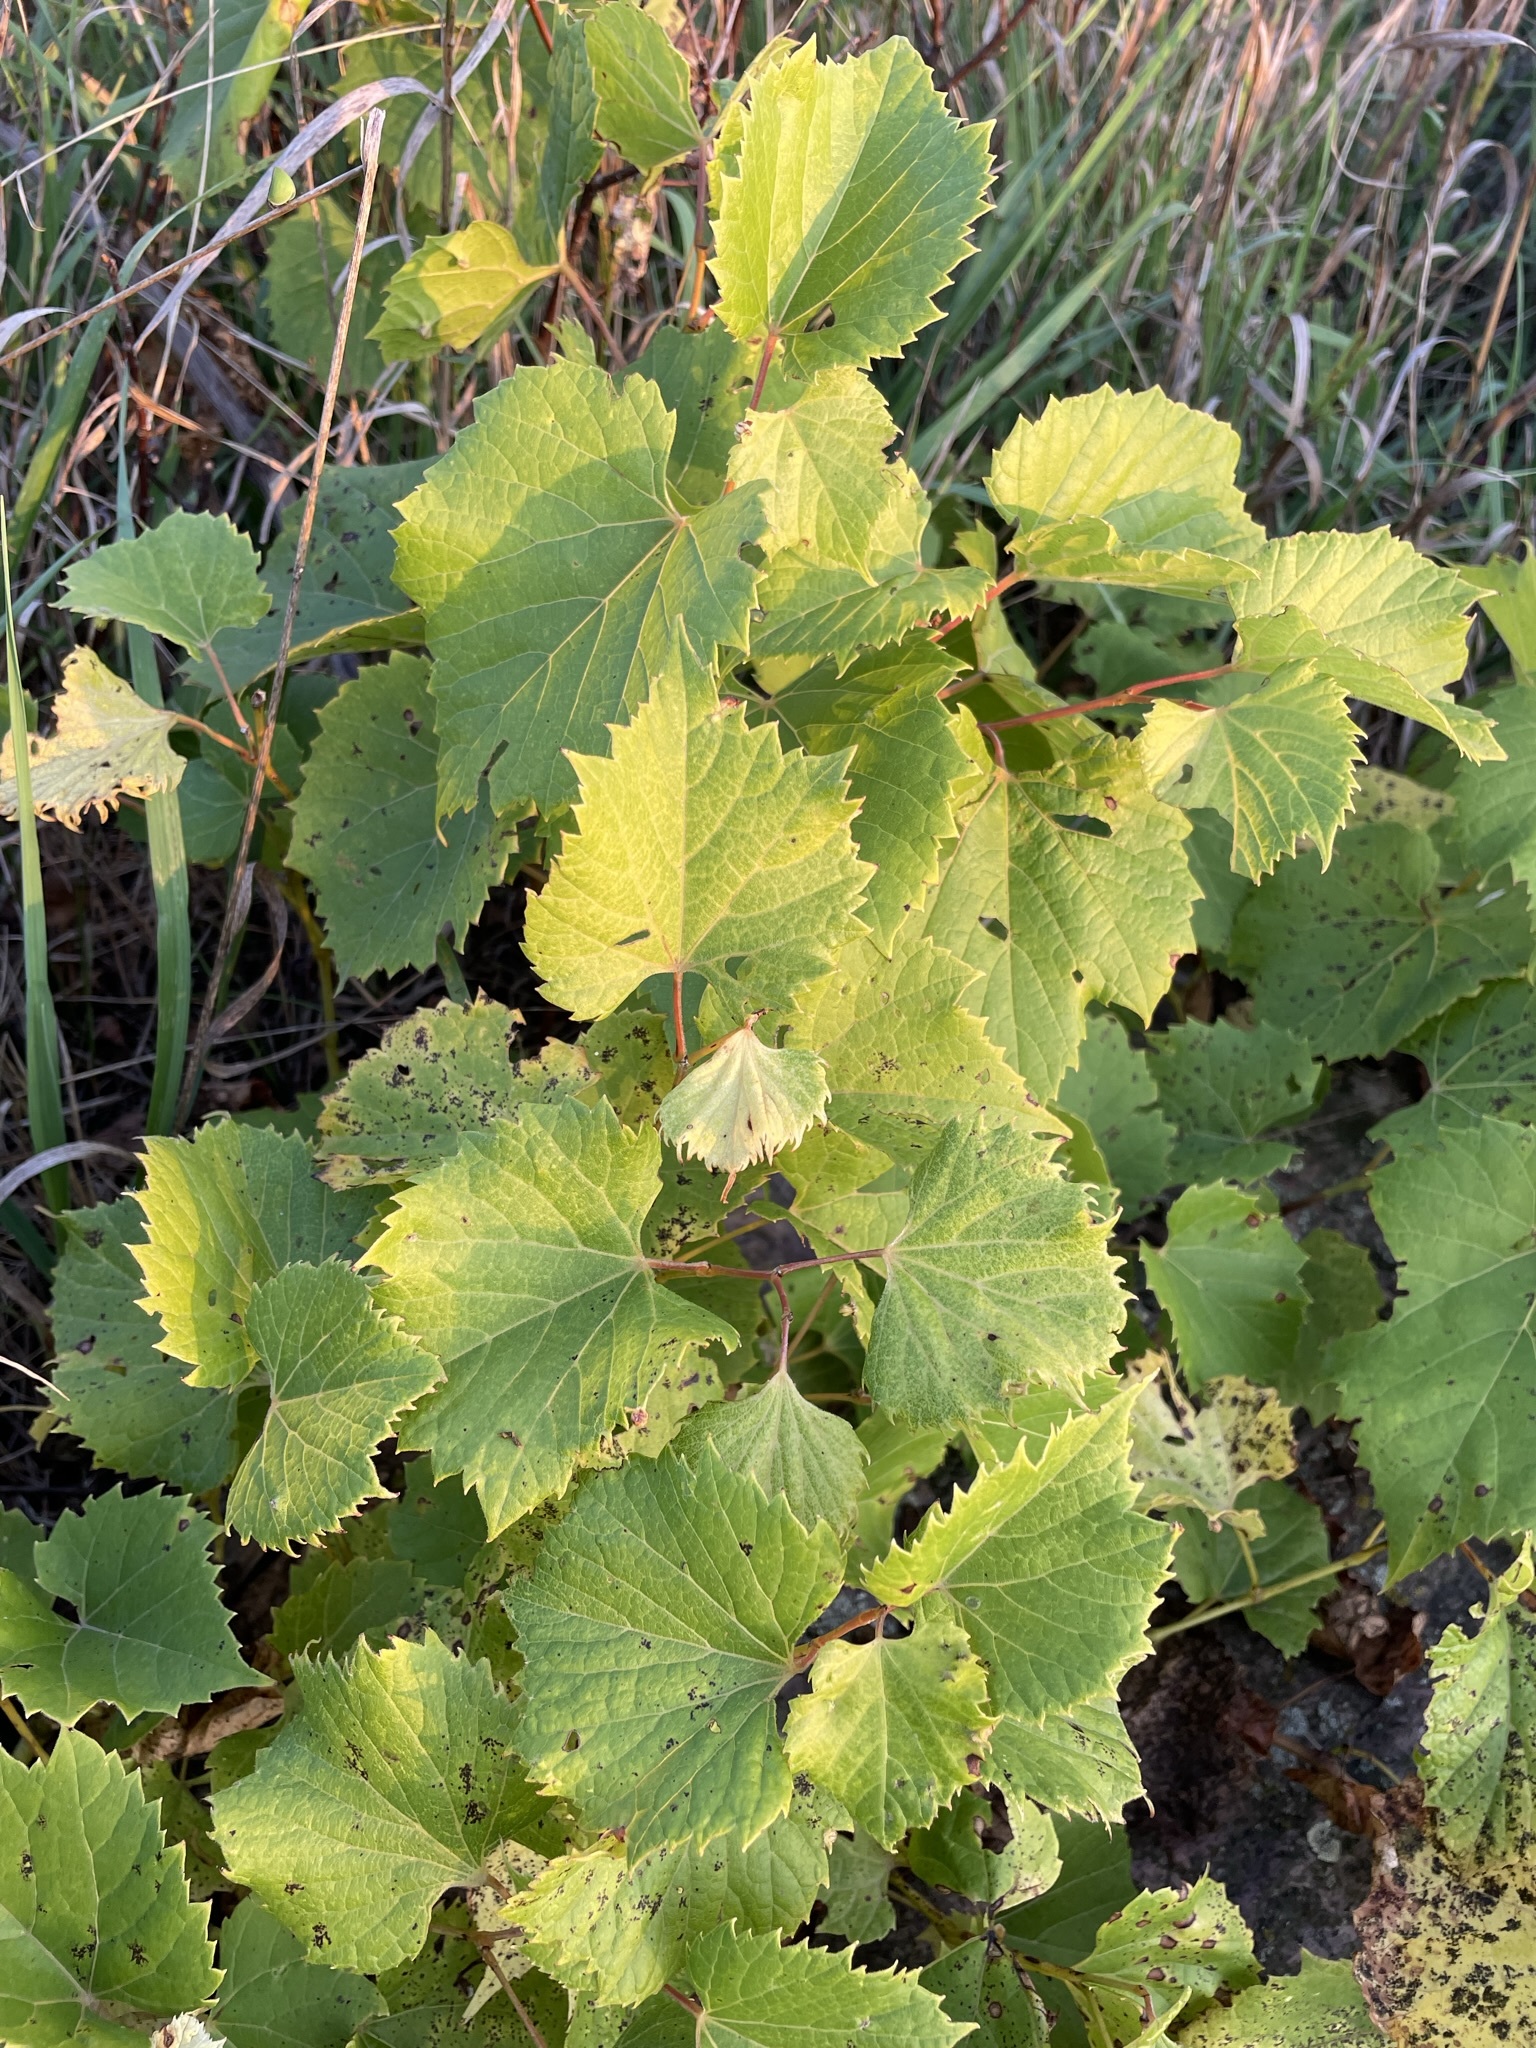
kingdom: Plantae
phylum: Tracheophyta
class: Magnoliopsida
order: Vitales
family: Vitaceae
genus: Vitis
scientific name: Vitis riparia
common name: Frost grape
